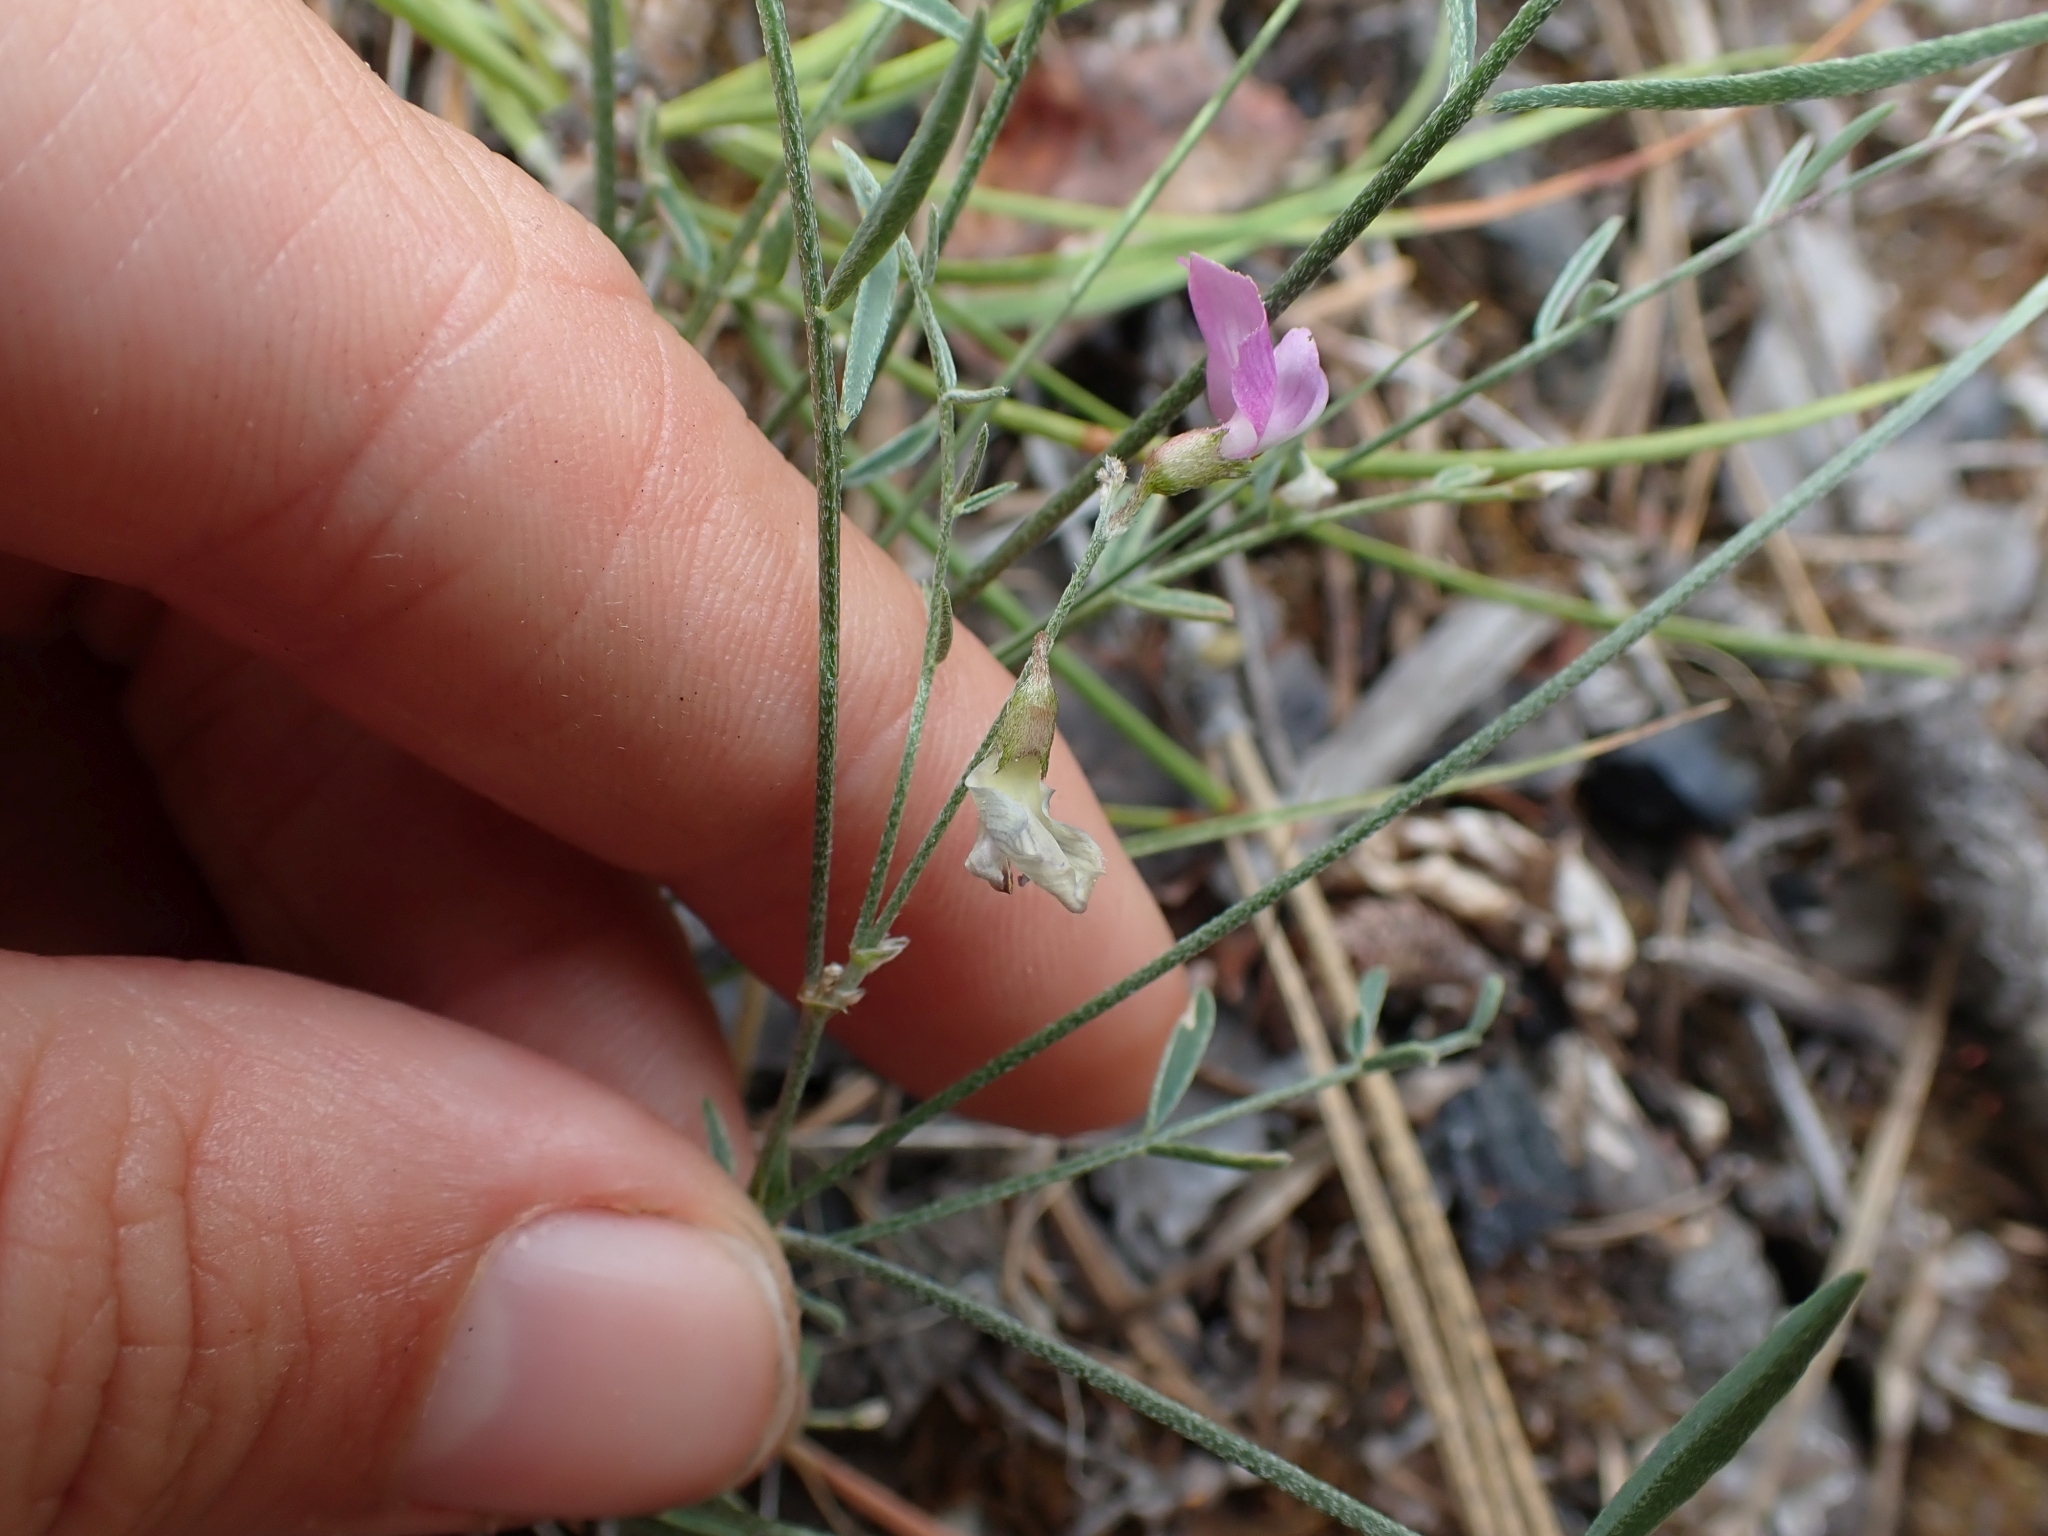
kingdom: Plantae
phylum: Tracheophyta
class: Magnoliopsida
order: Fabales
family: Fabaceae
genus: Astragalus
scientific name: Astragalus miser
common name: Timber milkvetch
